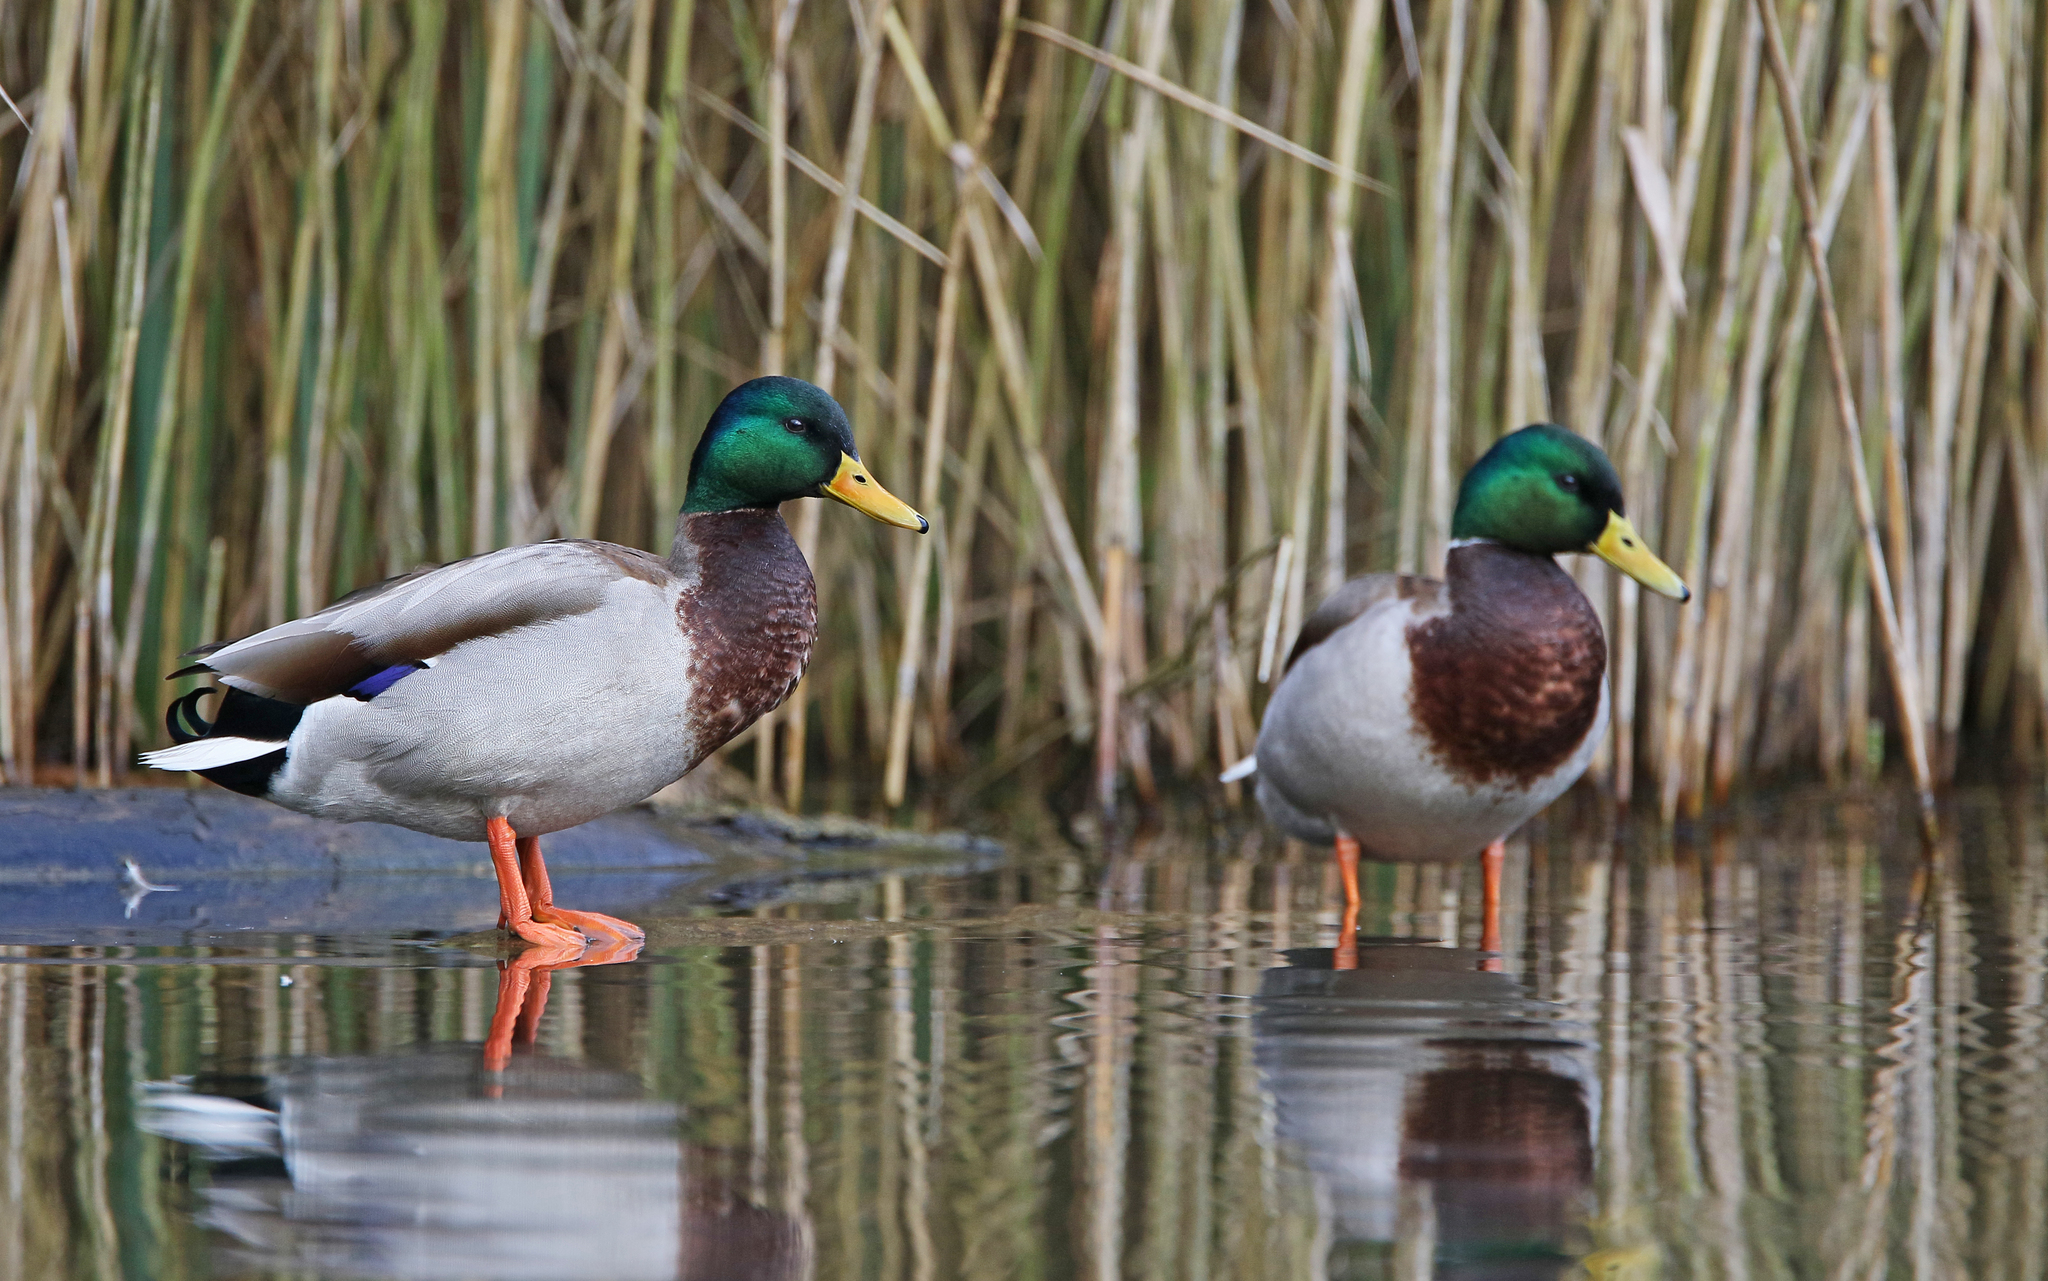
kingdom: Animalia
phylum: Chordata
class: Aves
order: Anseriformes
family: Anatidae
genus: Anas
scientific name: Anas platyrhynchos
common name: Mallard
